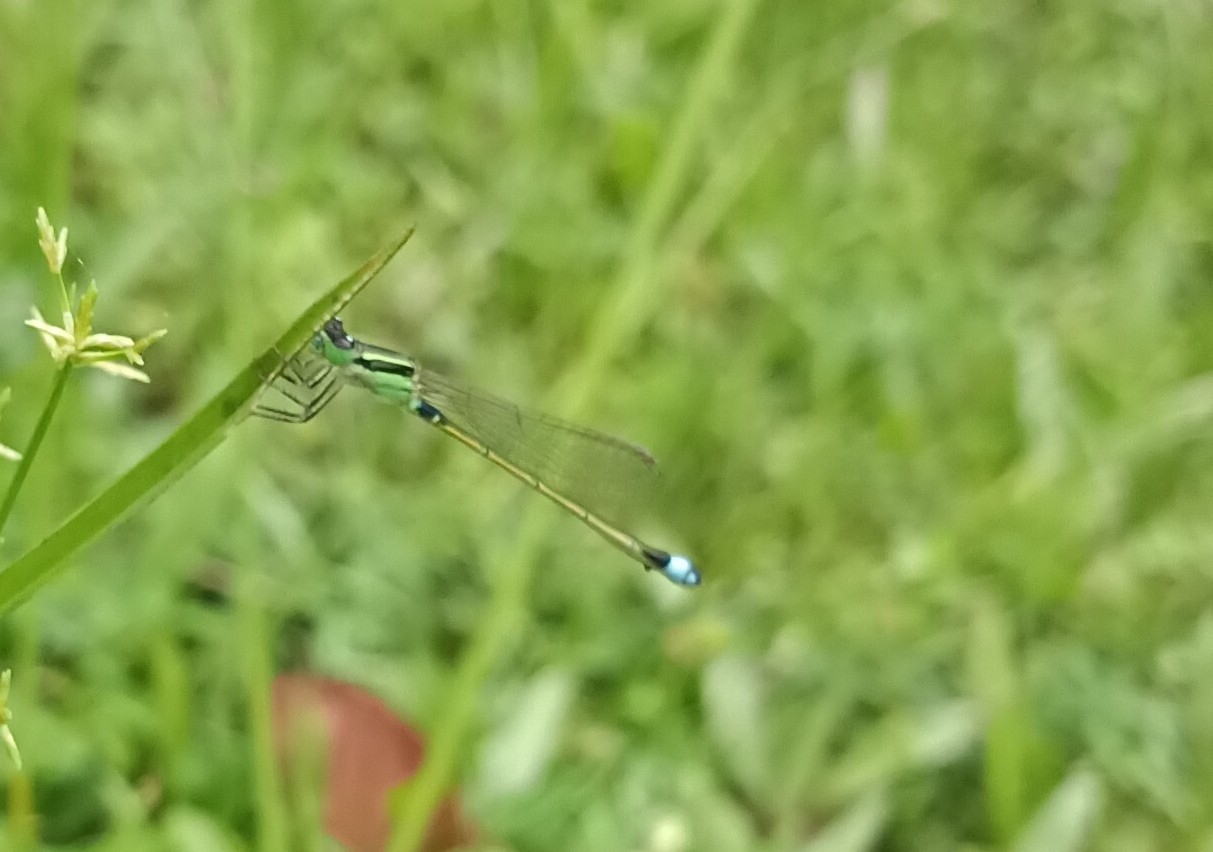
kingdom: Animalia
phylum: Arthropoda
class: Insecta
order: Odonata
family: Coenagrionidae
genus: Ischnura
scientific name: Ischnura senegalensis
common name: Tropical bluetail
